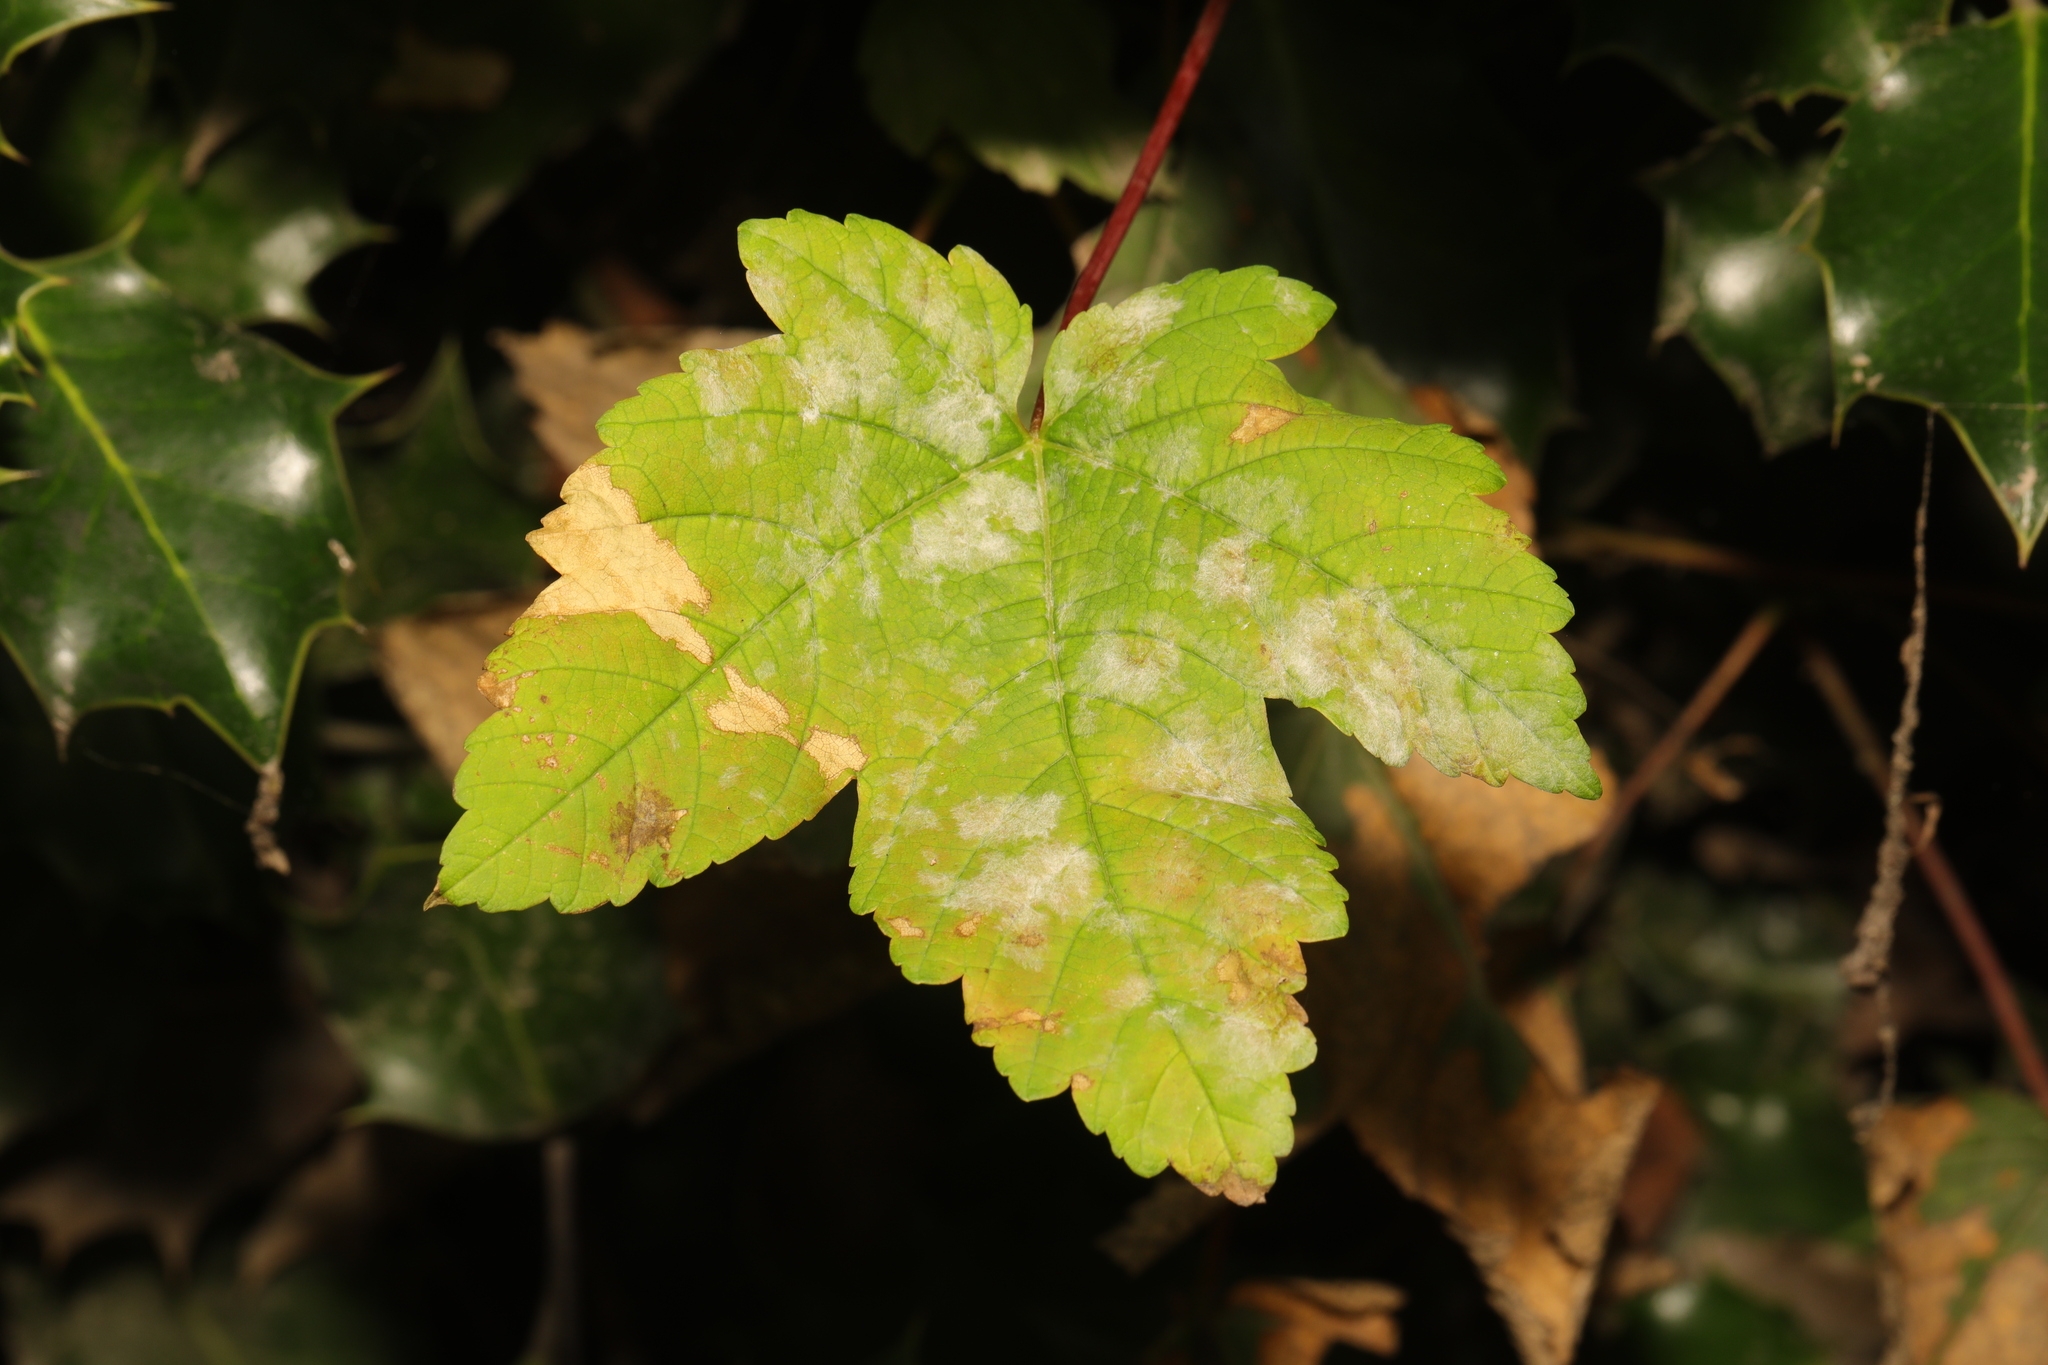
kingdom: Plantae
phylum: Tracheophyta
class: Magnoliopsida
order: Sapindales
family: Sapindaceae
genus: Acer
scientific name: Acer pseudoplatanus
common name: Sycamore
